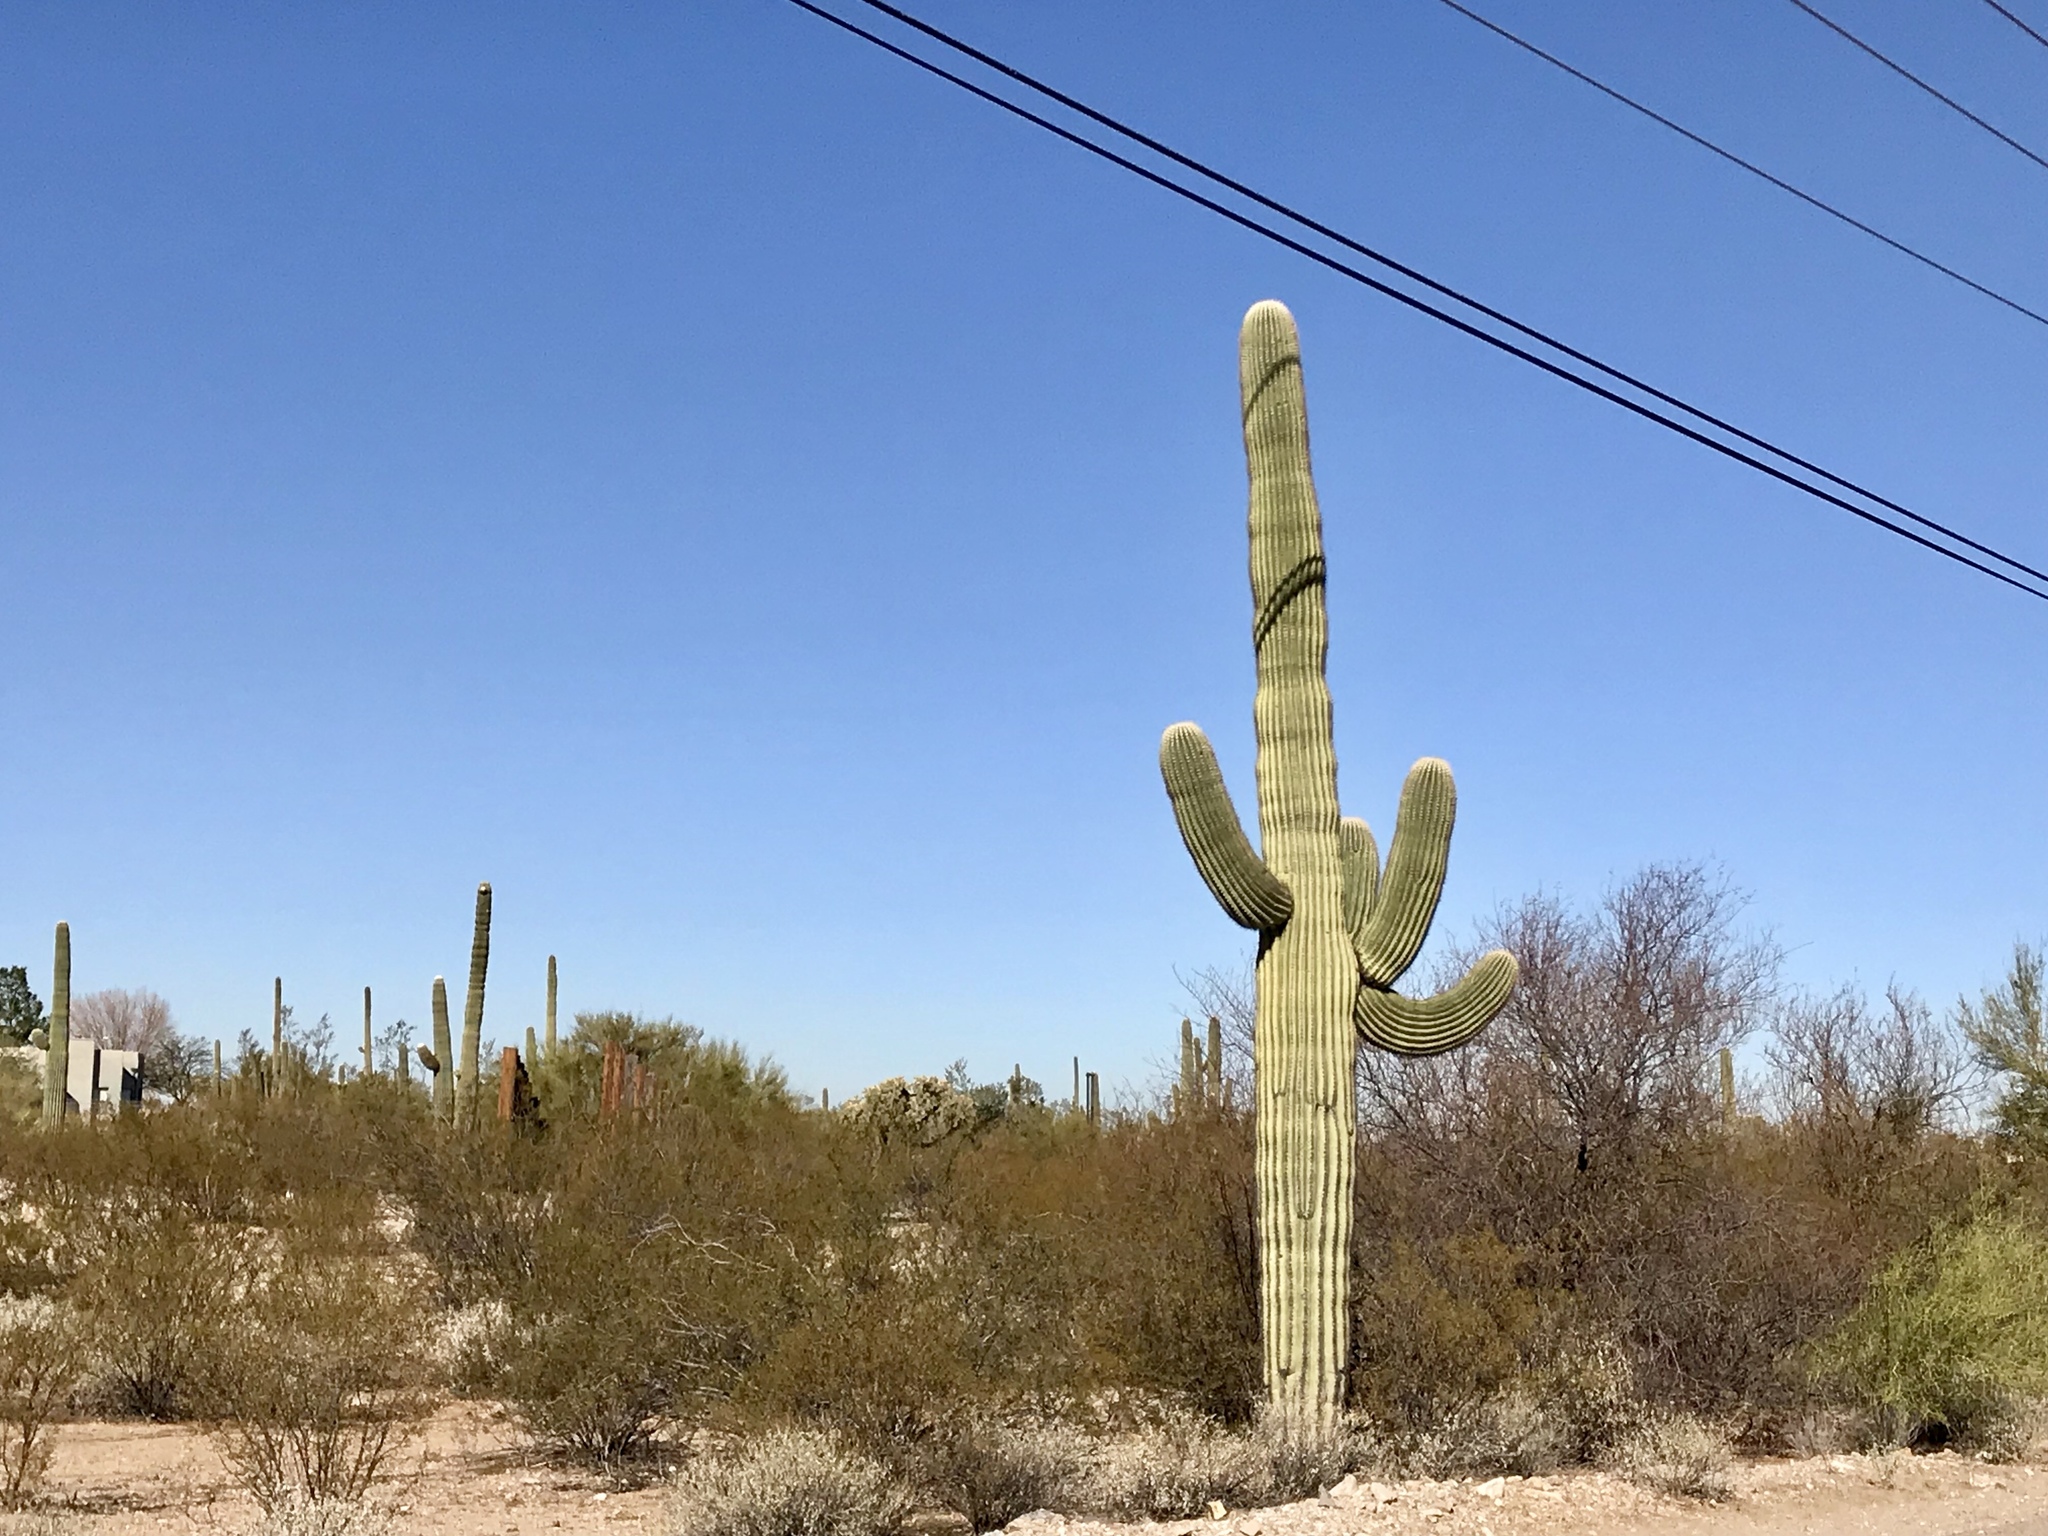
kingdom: Plantae
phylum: Tracheophyta
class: Magnoliopsida
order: Caryophyllales
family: Cactaceae
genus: Carnegiea
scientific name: Carnegiea gigantea
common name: Saguaro
